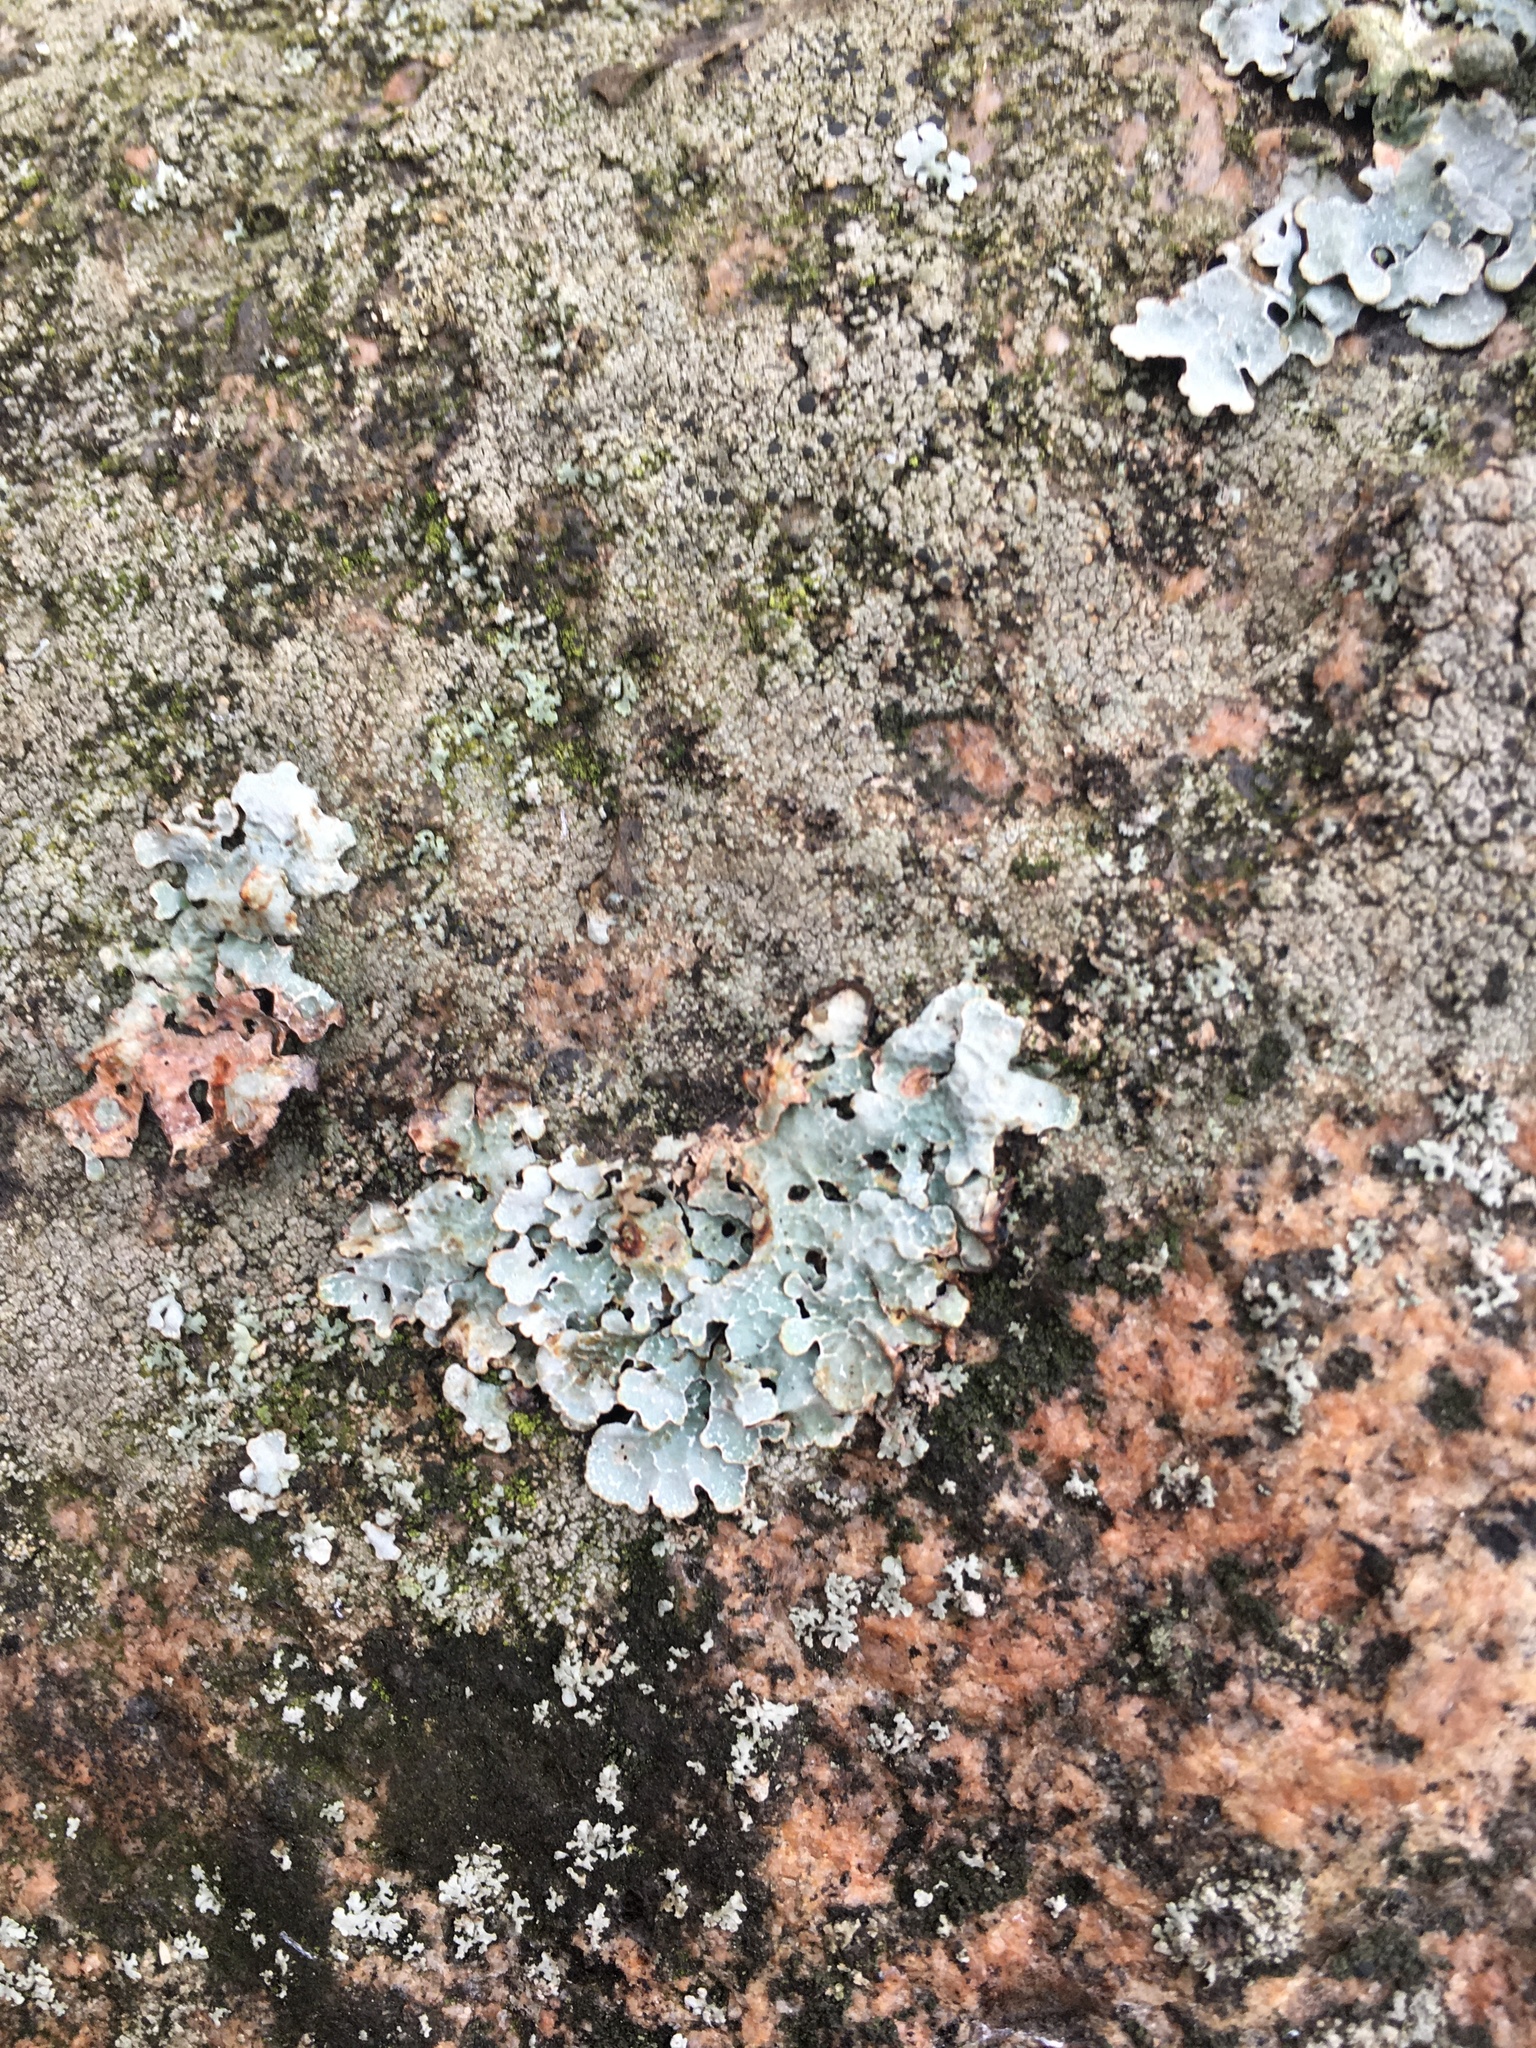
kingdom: Fungi
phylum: Ascomycota
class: Lecanoromycetes
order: Lecanorales
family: Parmeliaceae
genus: Parmelia
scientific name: Parmelia sulcata
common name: Netted shield lichen
